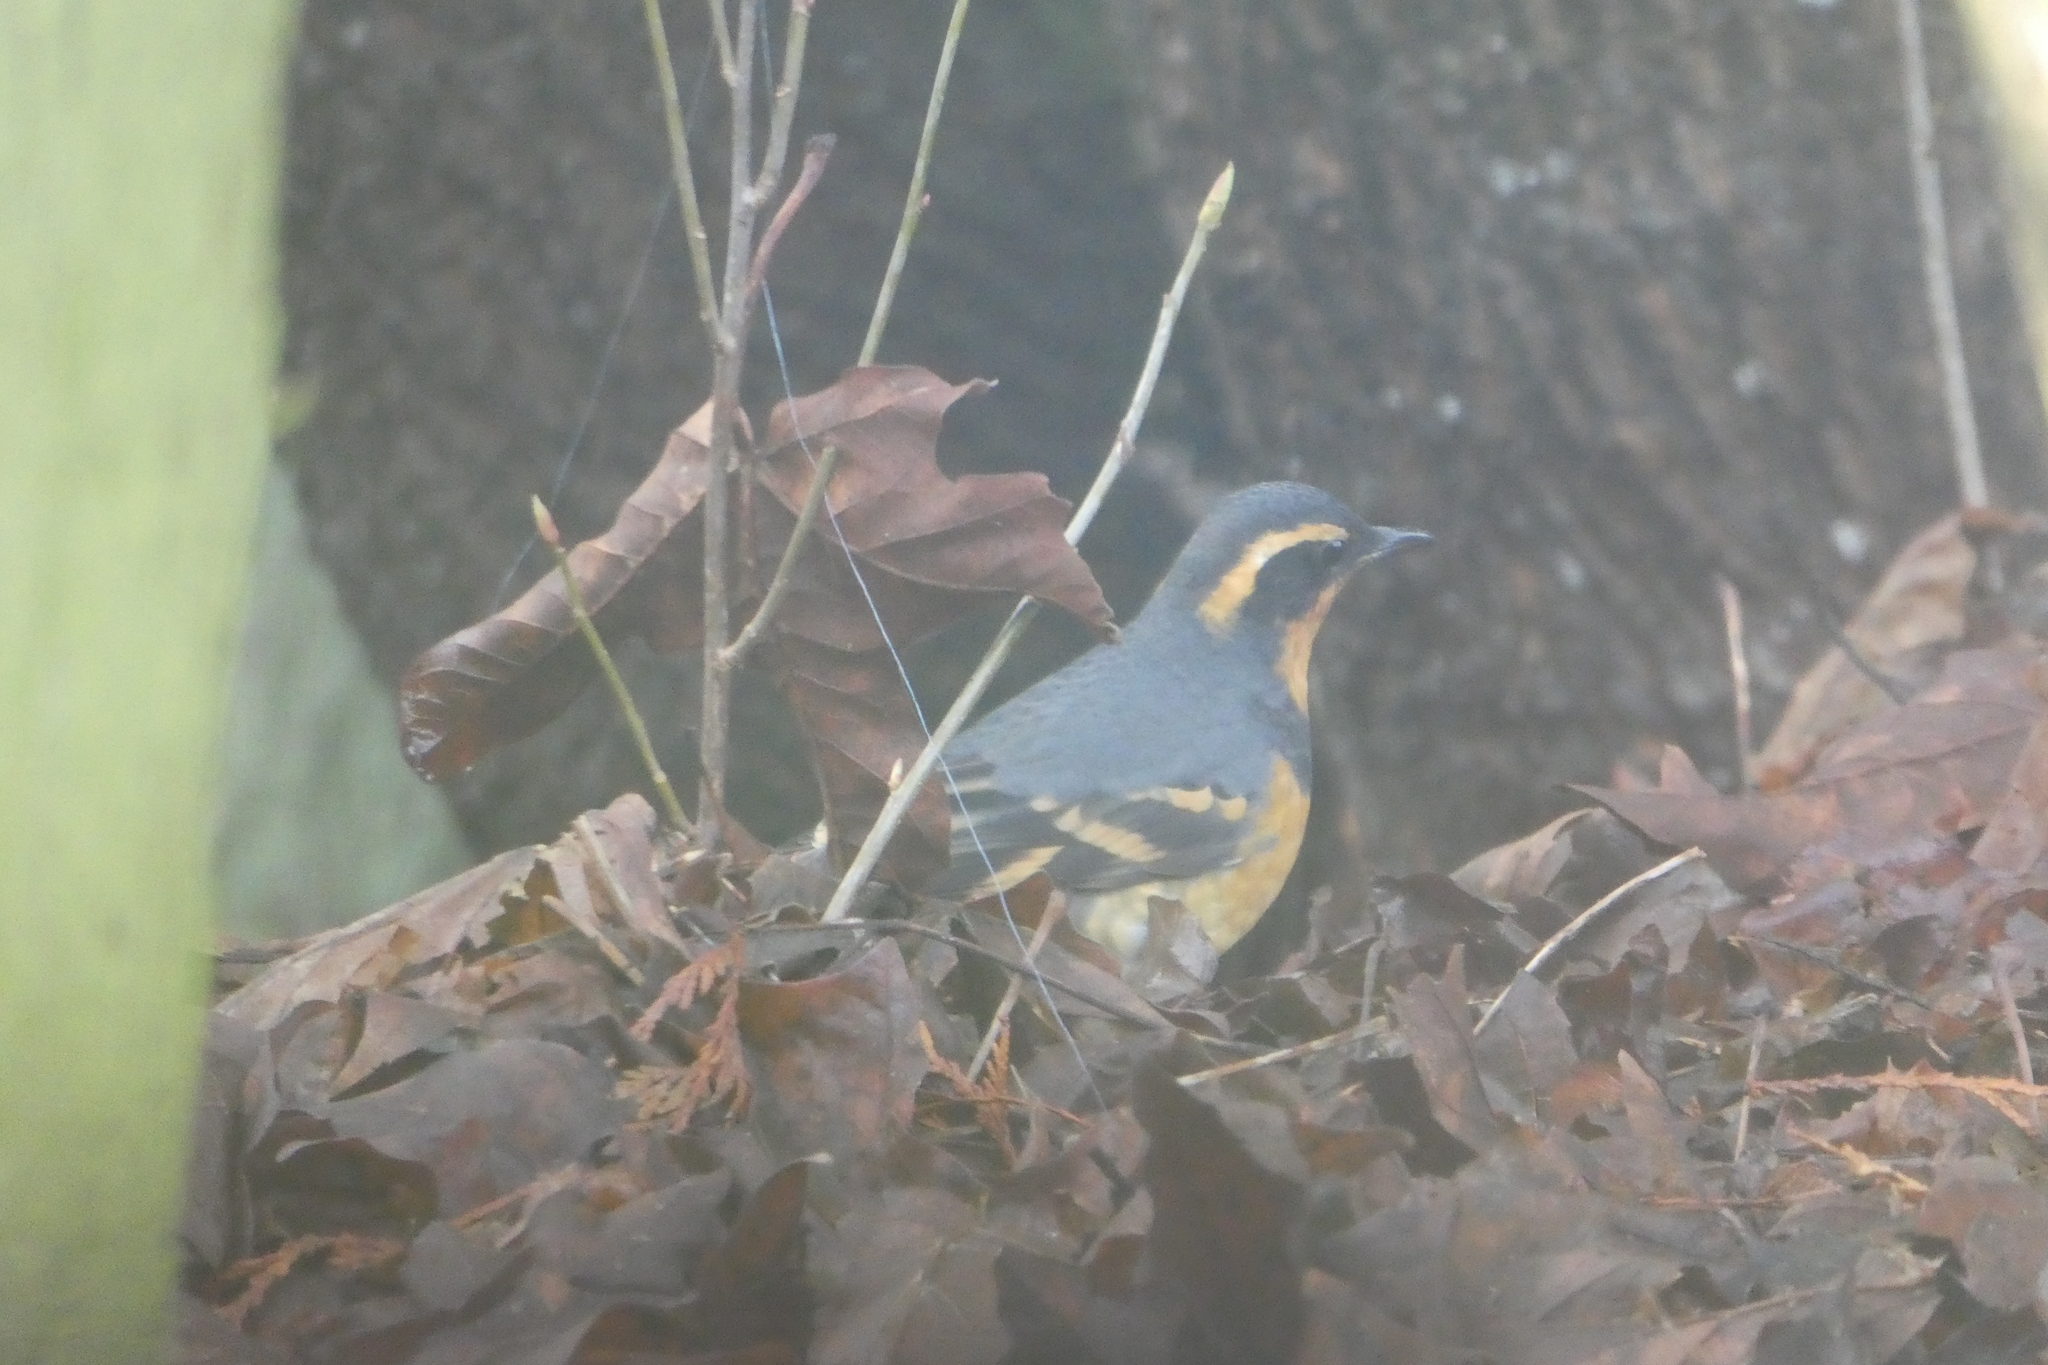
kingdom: Animalia
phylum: Chordata
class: Aves
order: Passeriformes
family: Turdidae
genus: Ixoreus
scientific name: Ixoreus naevius
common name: Varied thrush
